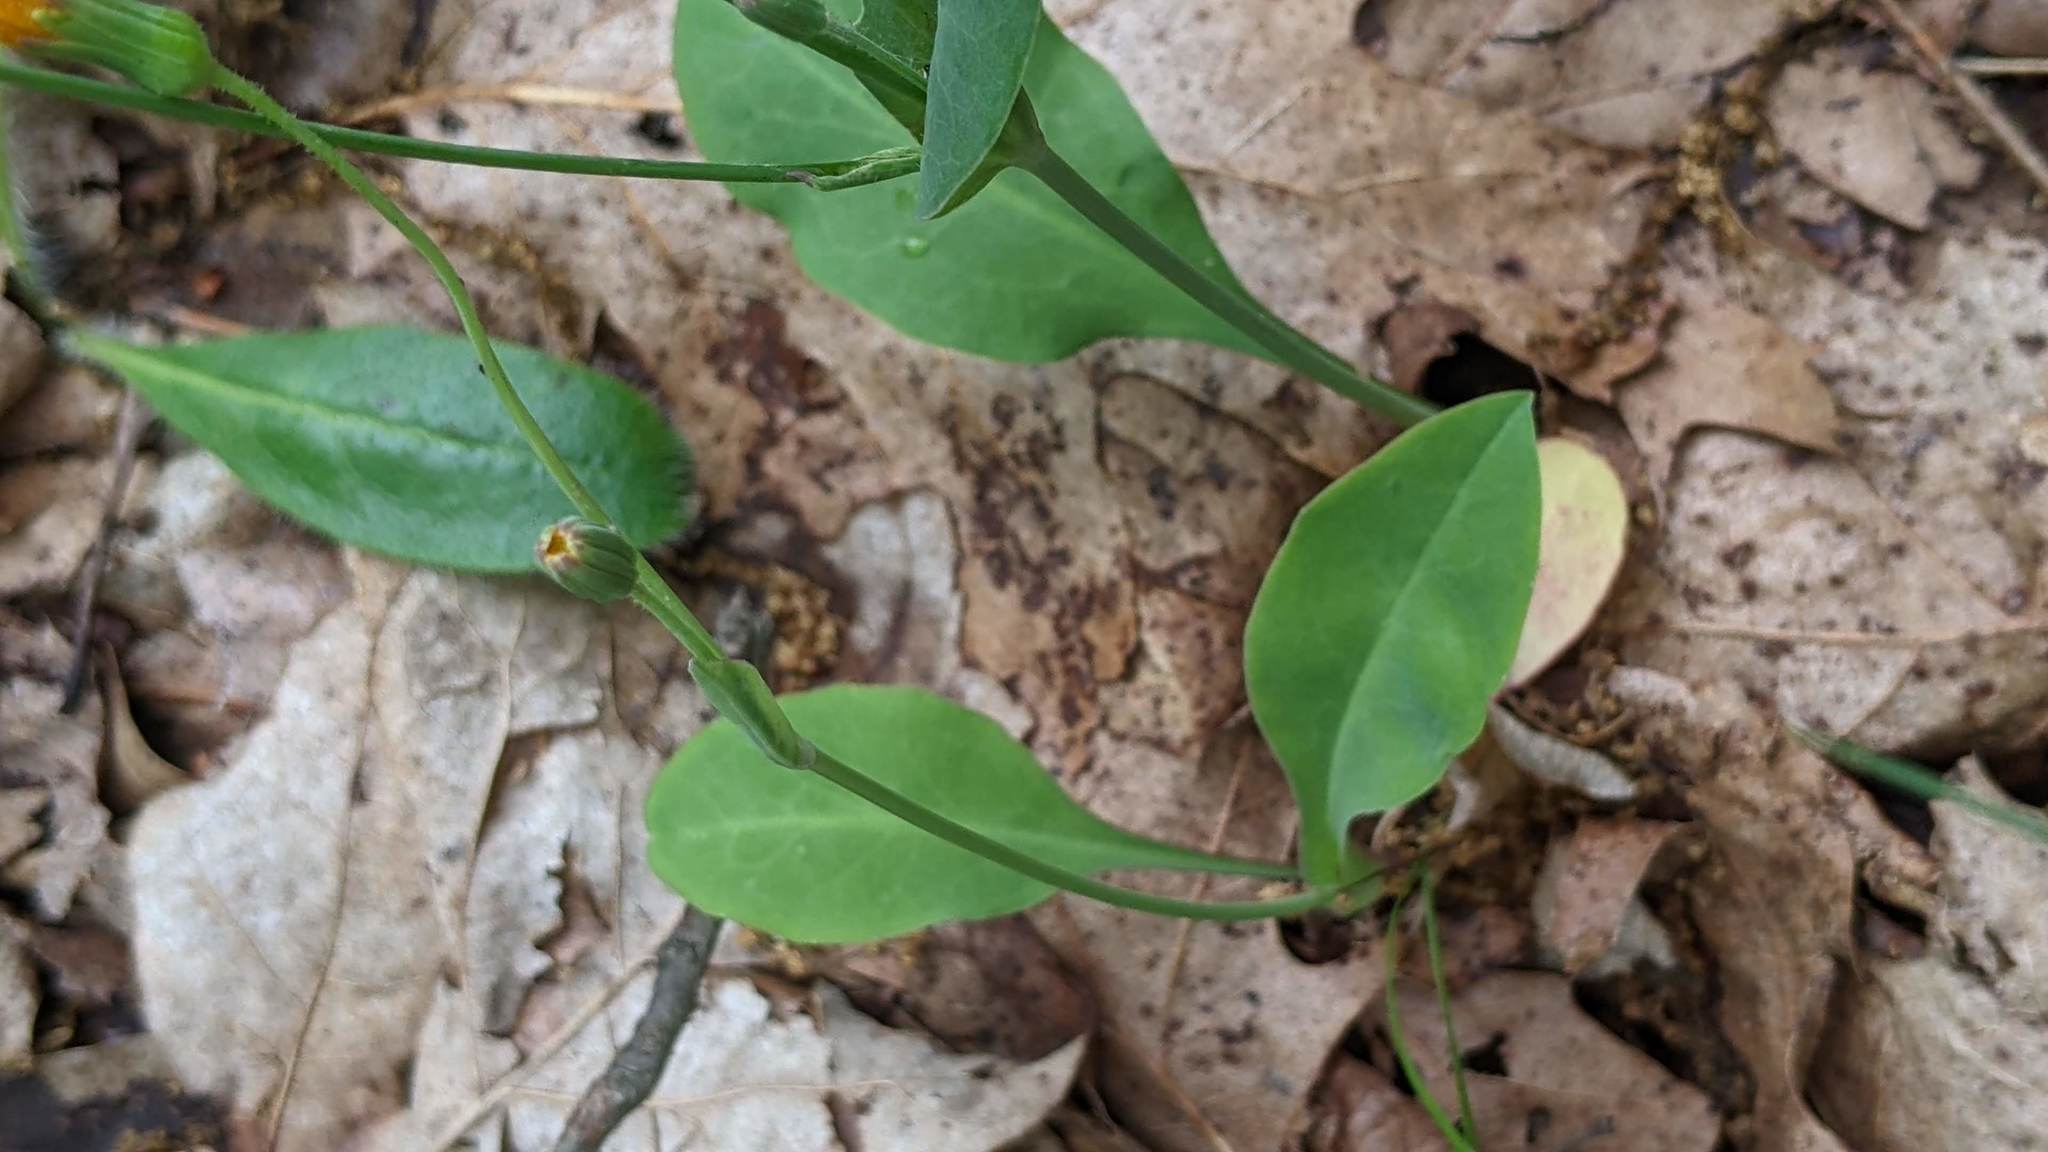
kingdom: Plantae
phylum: Tracheophyta
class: Magnoliopsida
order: Asterales
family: Asteraceae
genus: Krigia
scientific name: Krigia biflora
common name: Orange dwarf-dandelion
